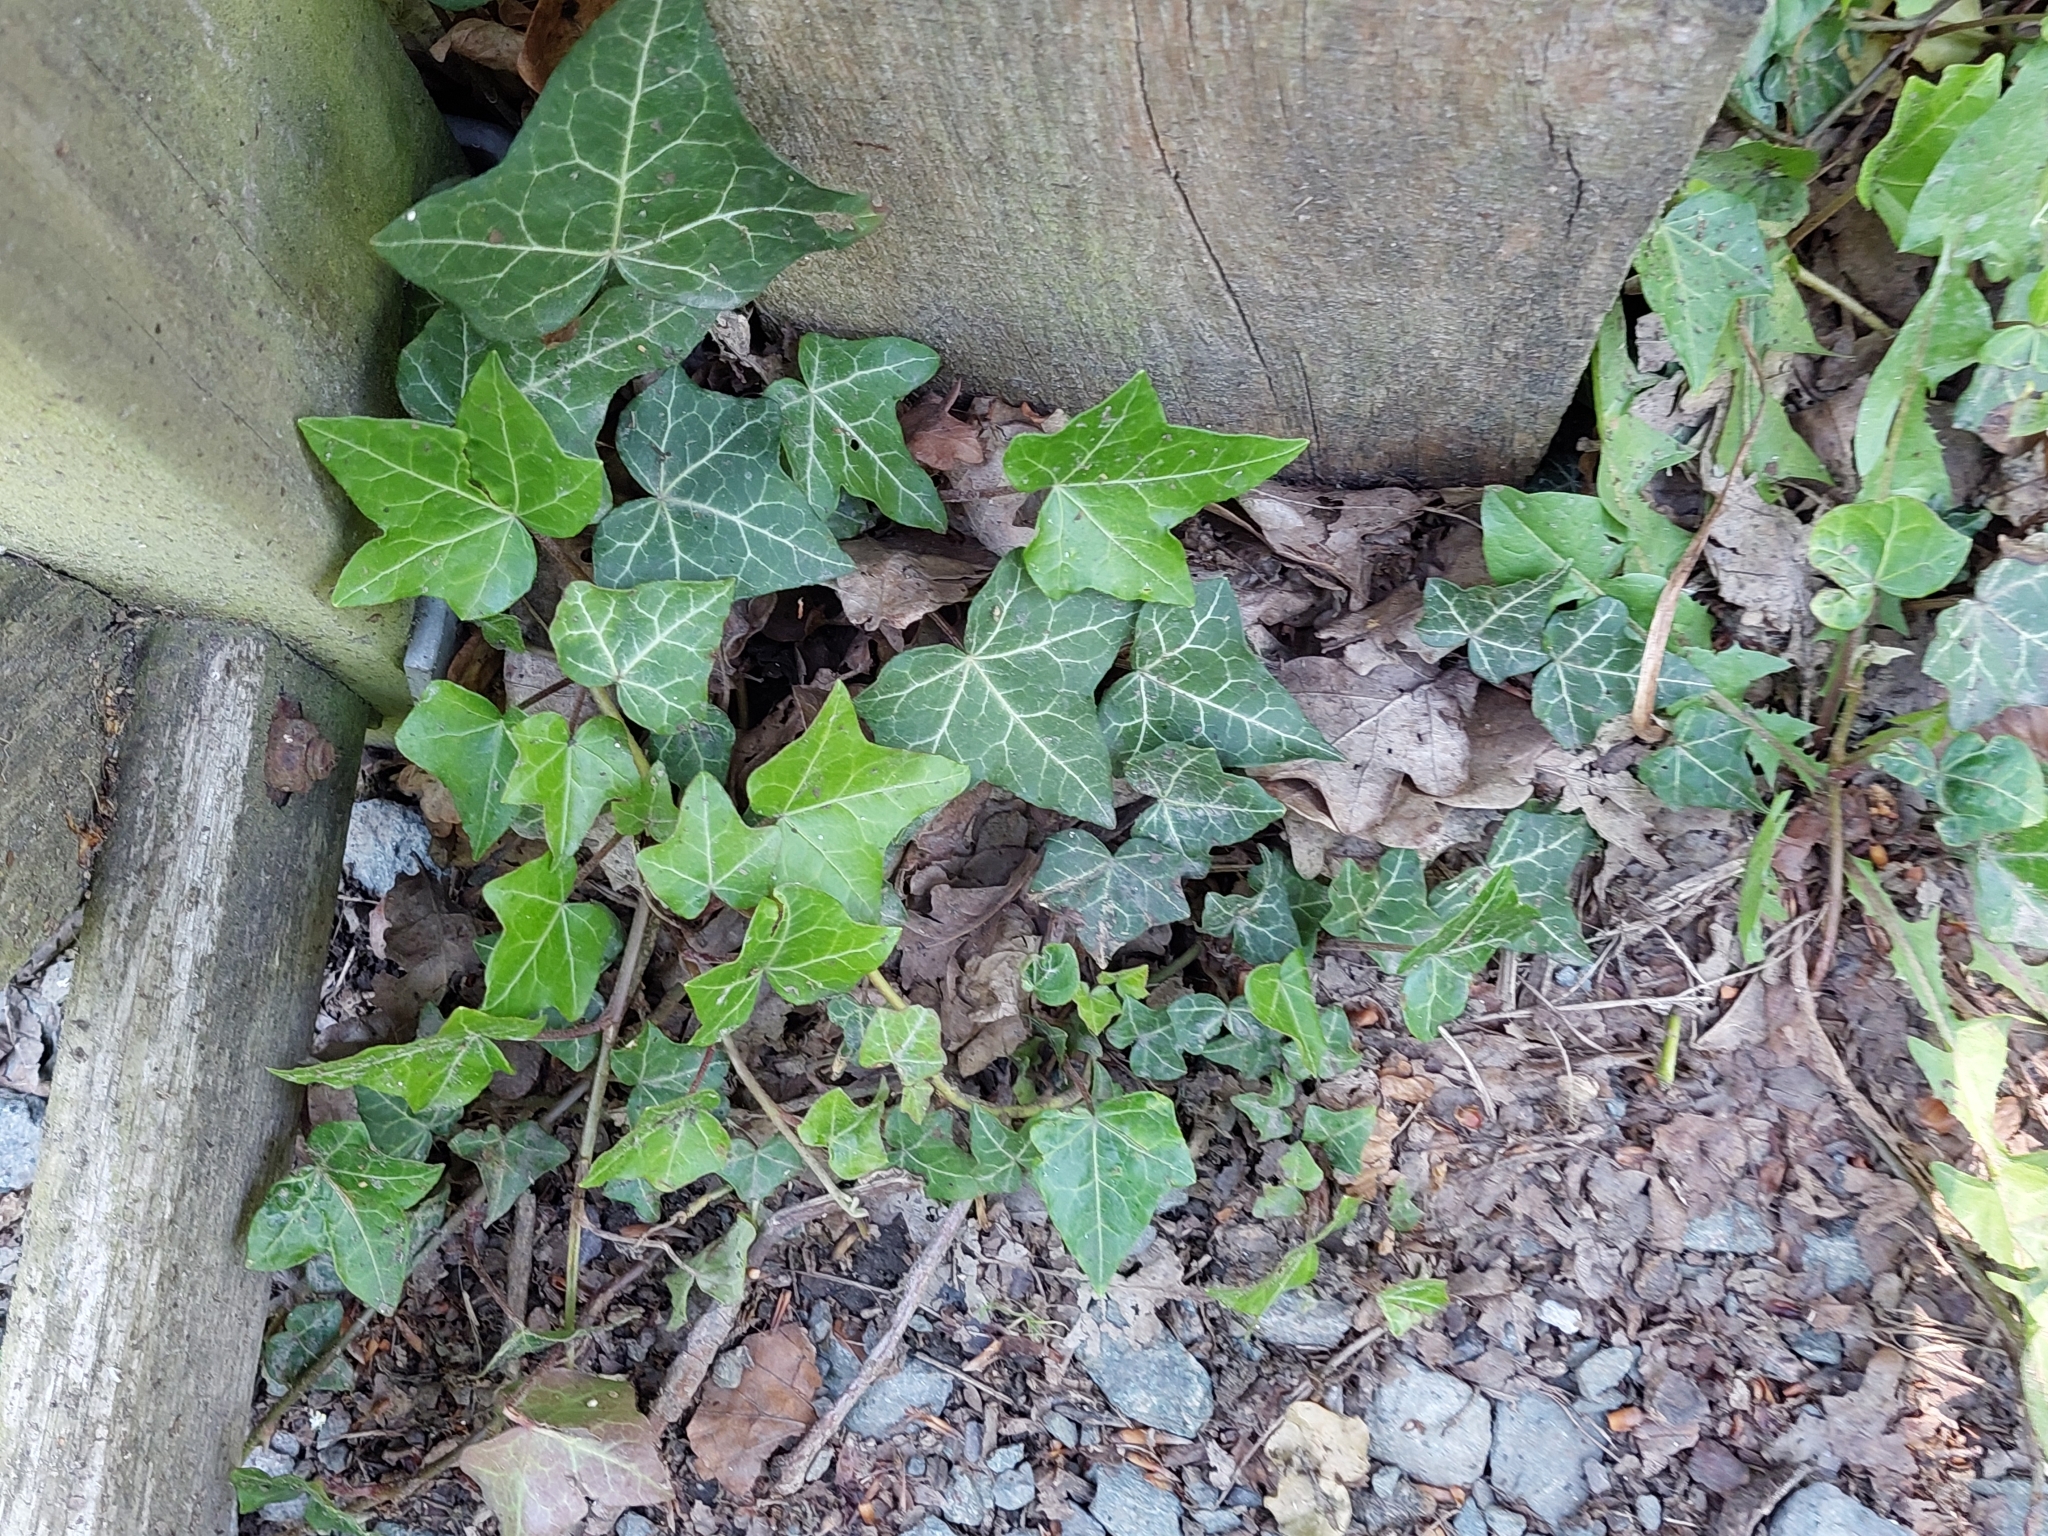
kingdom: Plantae
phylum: Tracheophyta
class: Magnoliopsida
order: Apiales
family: Araliaceae
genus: Hedera
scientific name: Hedera helix
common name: Ivy
